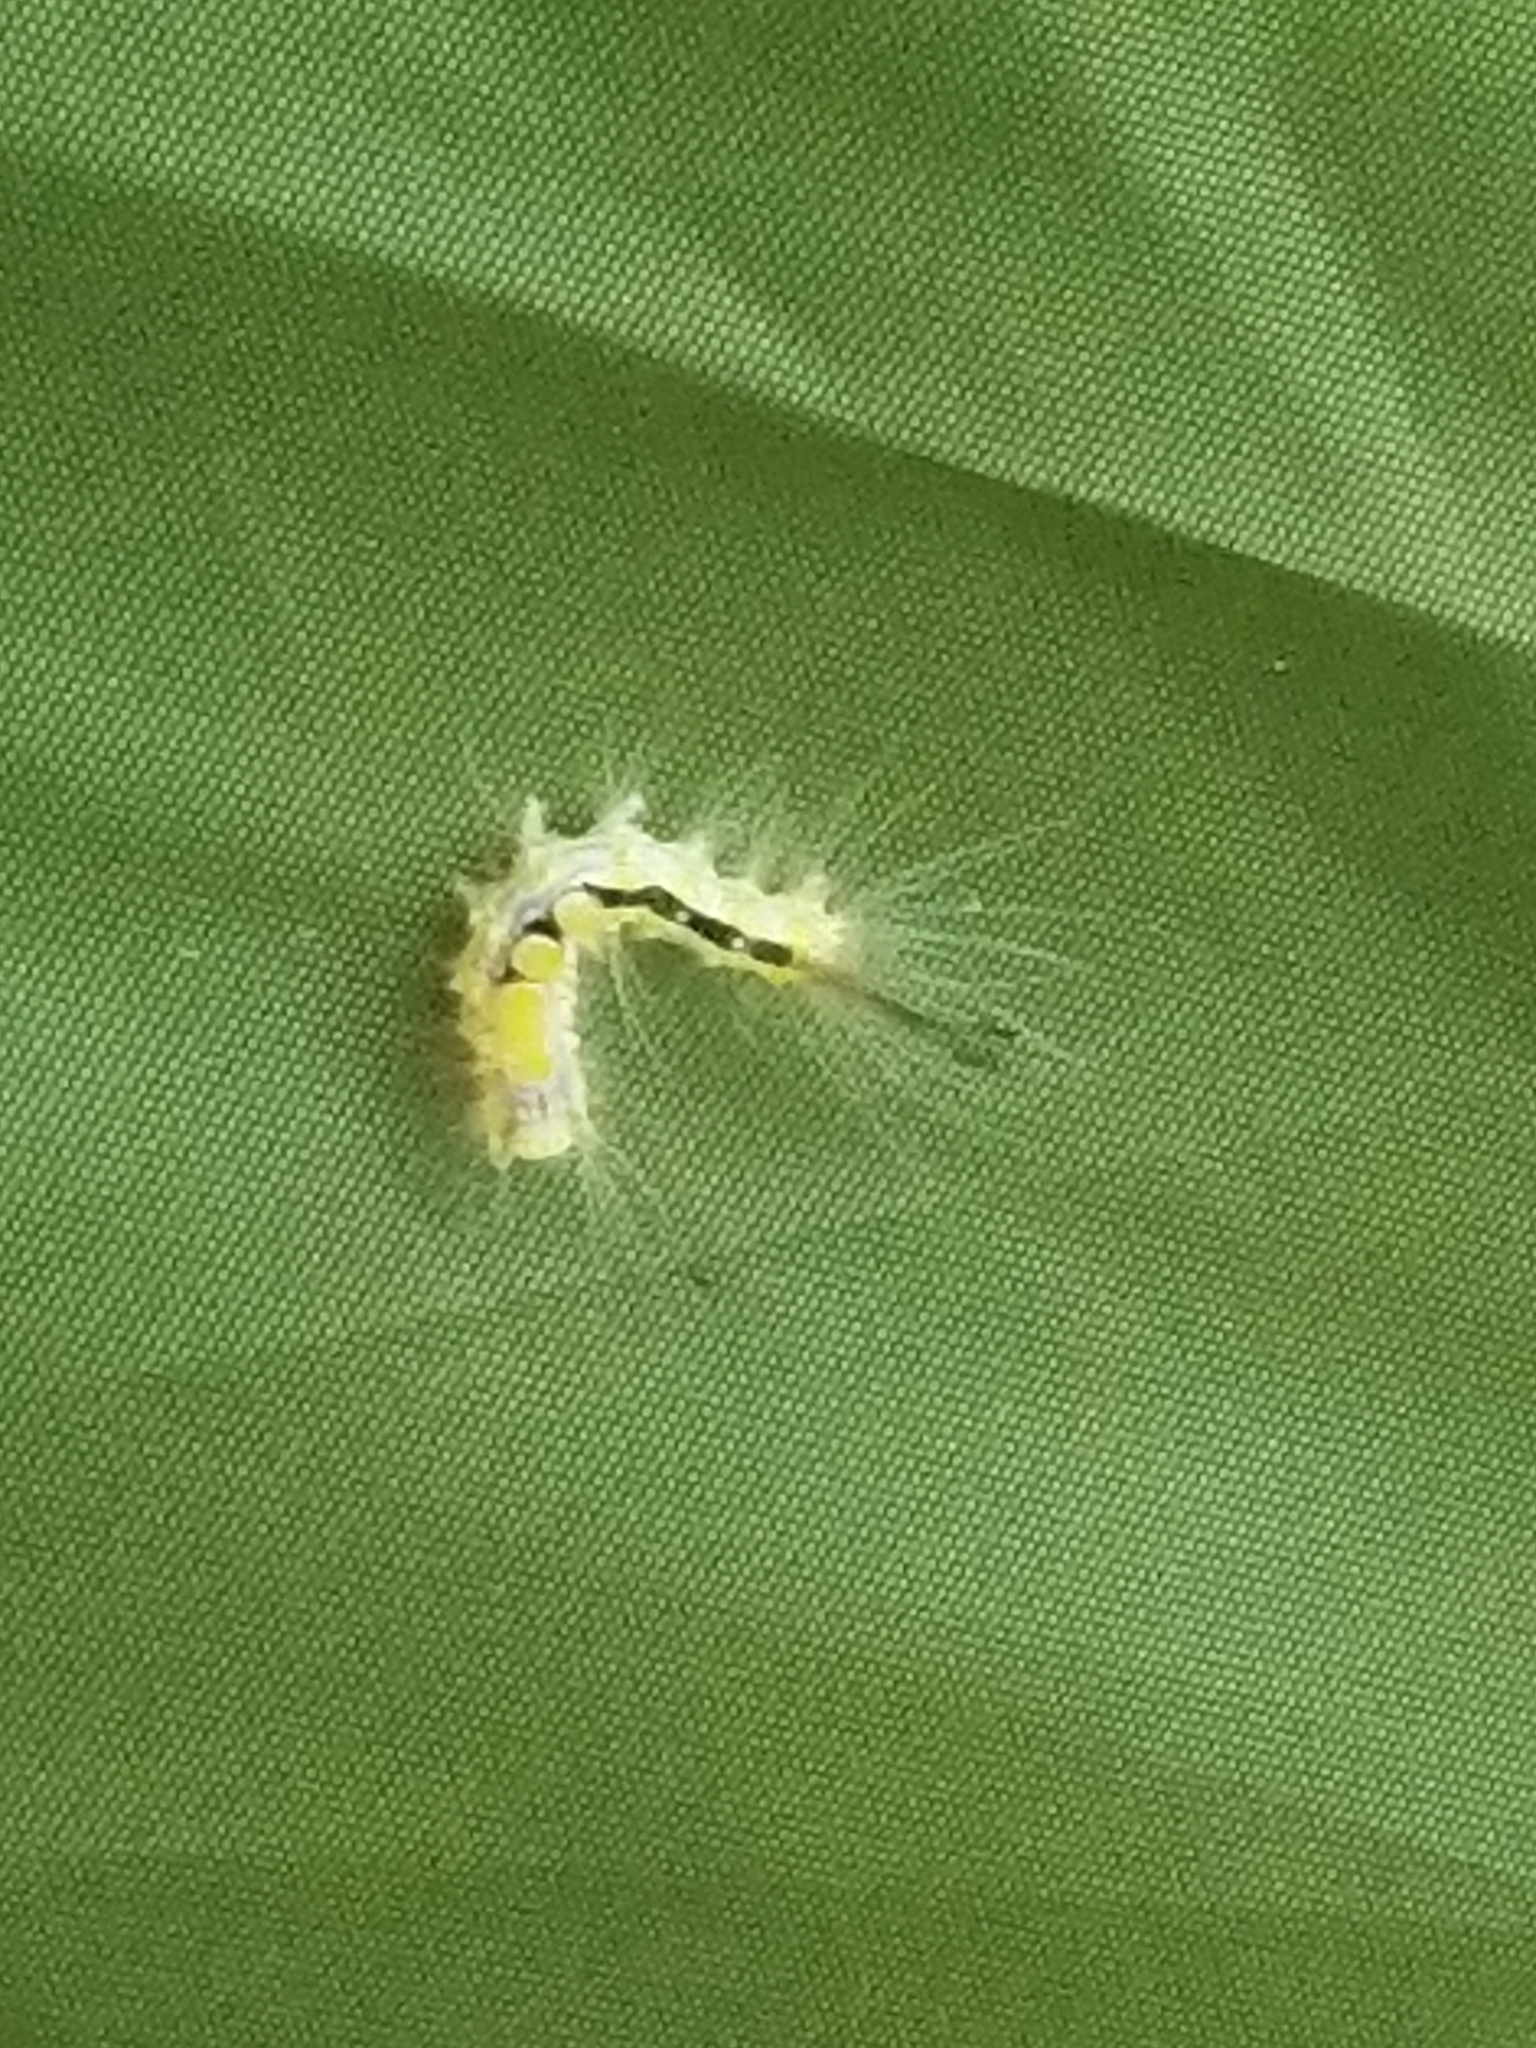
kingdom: Animalia
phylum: Arthropoda
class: Insecta
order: Lepidoptera
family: Erebidae
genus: Orgyia
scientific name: Orgyia definita
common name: Definite tussock moth
